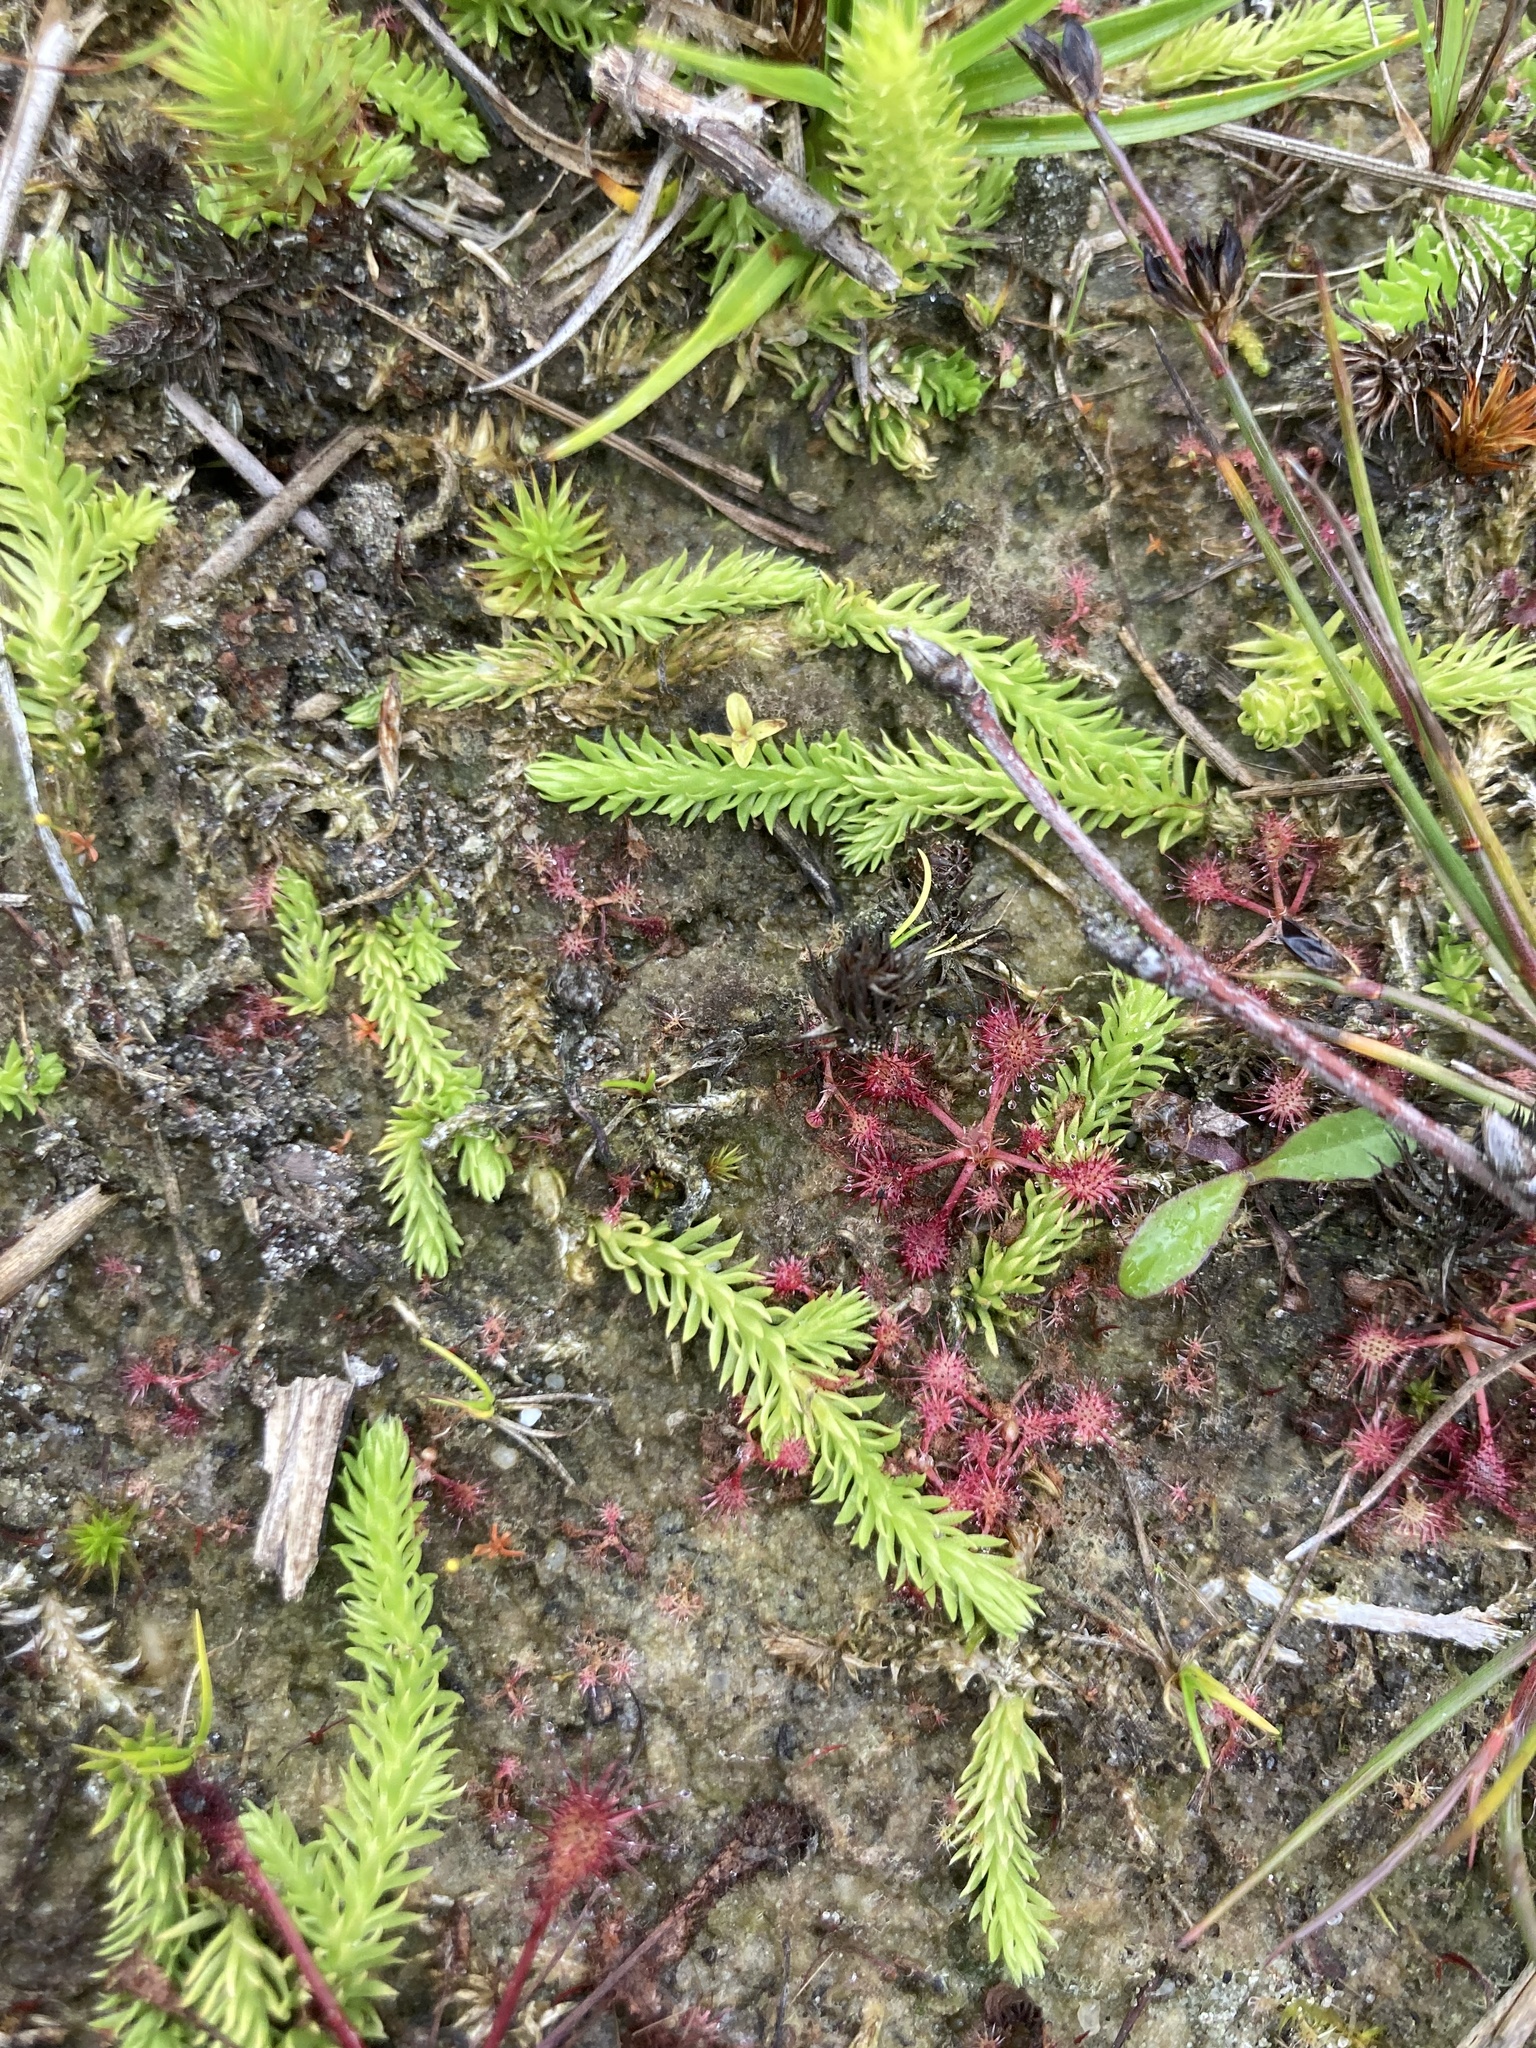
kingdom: Plantae
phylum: Tracheophyta
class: Lycopodiopsida
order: Lycopodiales
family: Lycopodiaceae
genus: Lycopodiella
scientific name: Lycopodiella inundata
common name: Marsh clubmoss
